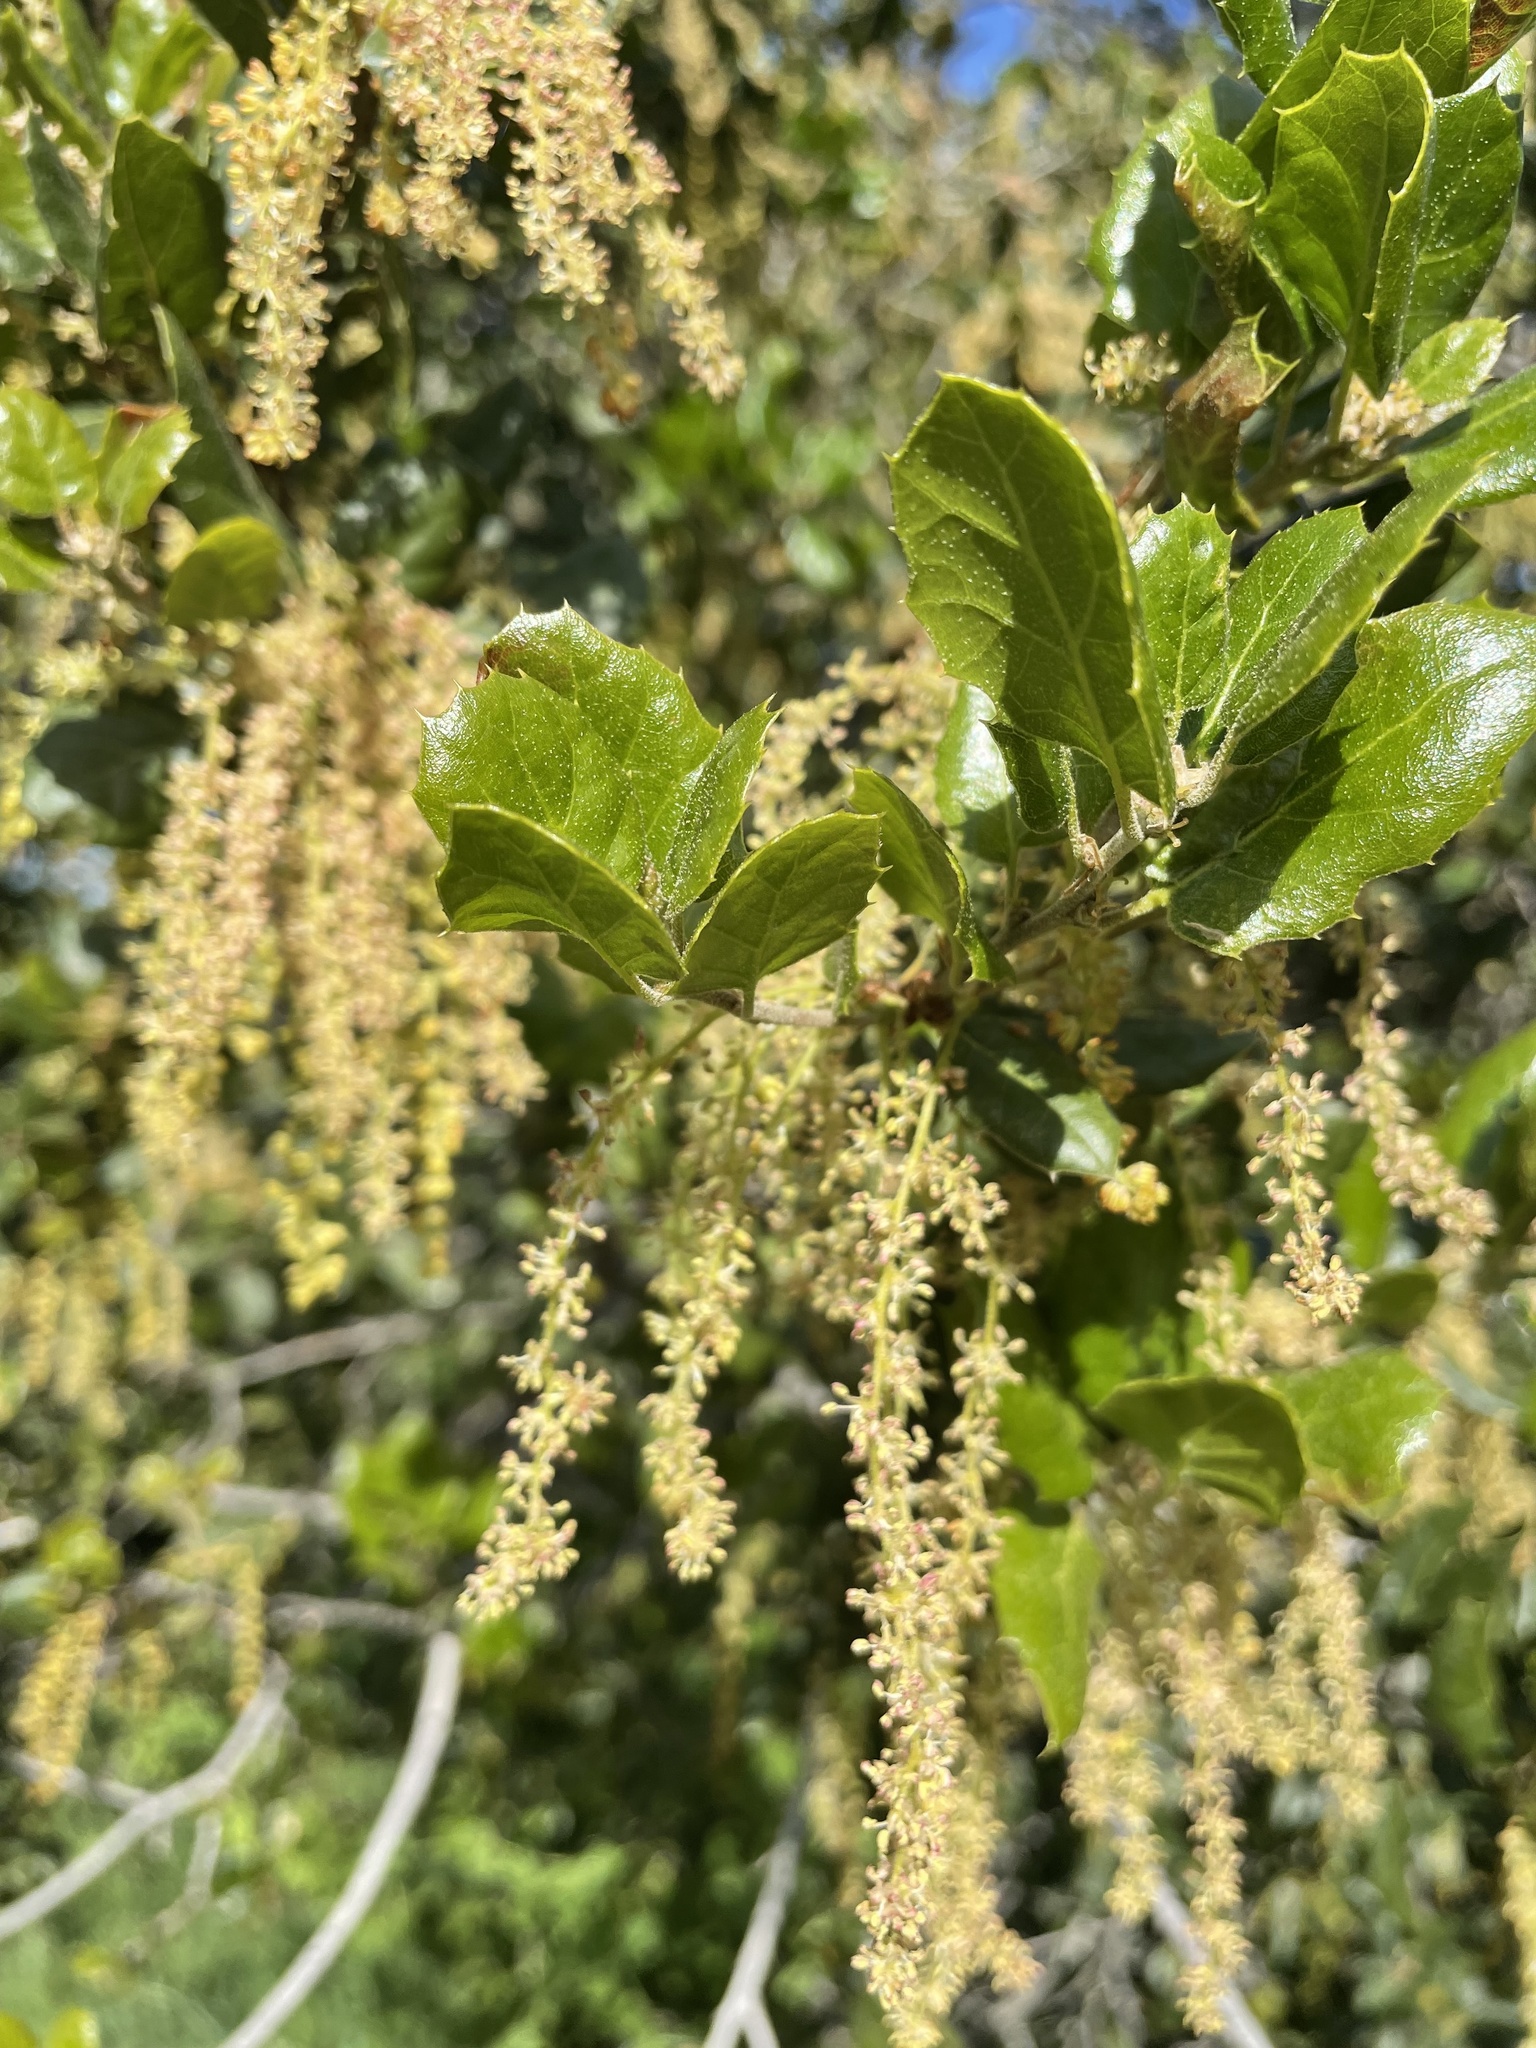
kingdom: Plantae
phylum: Tracheophyta
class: Magnoliopsida
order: Fagales
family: Fagaceae
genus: Quercus
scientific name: Quercus agrifolia
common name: California live oak
